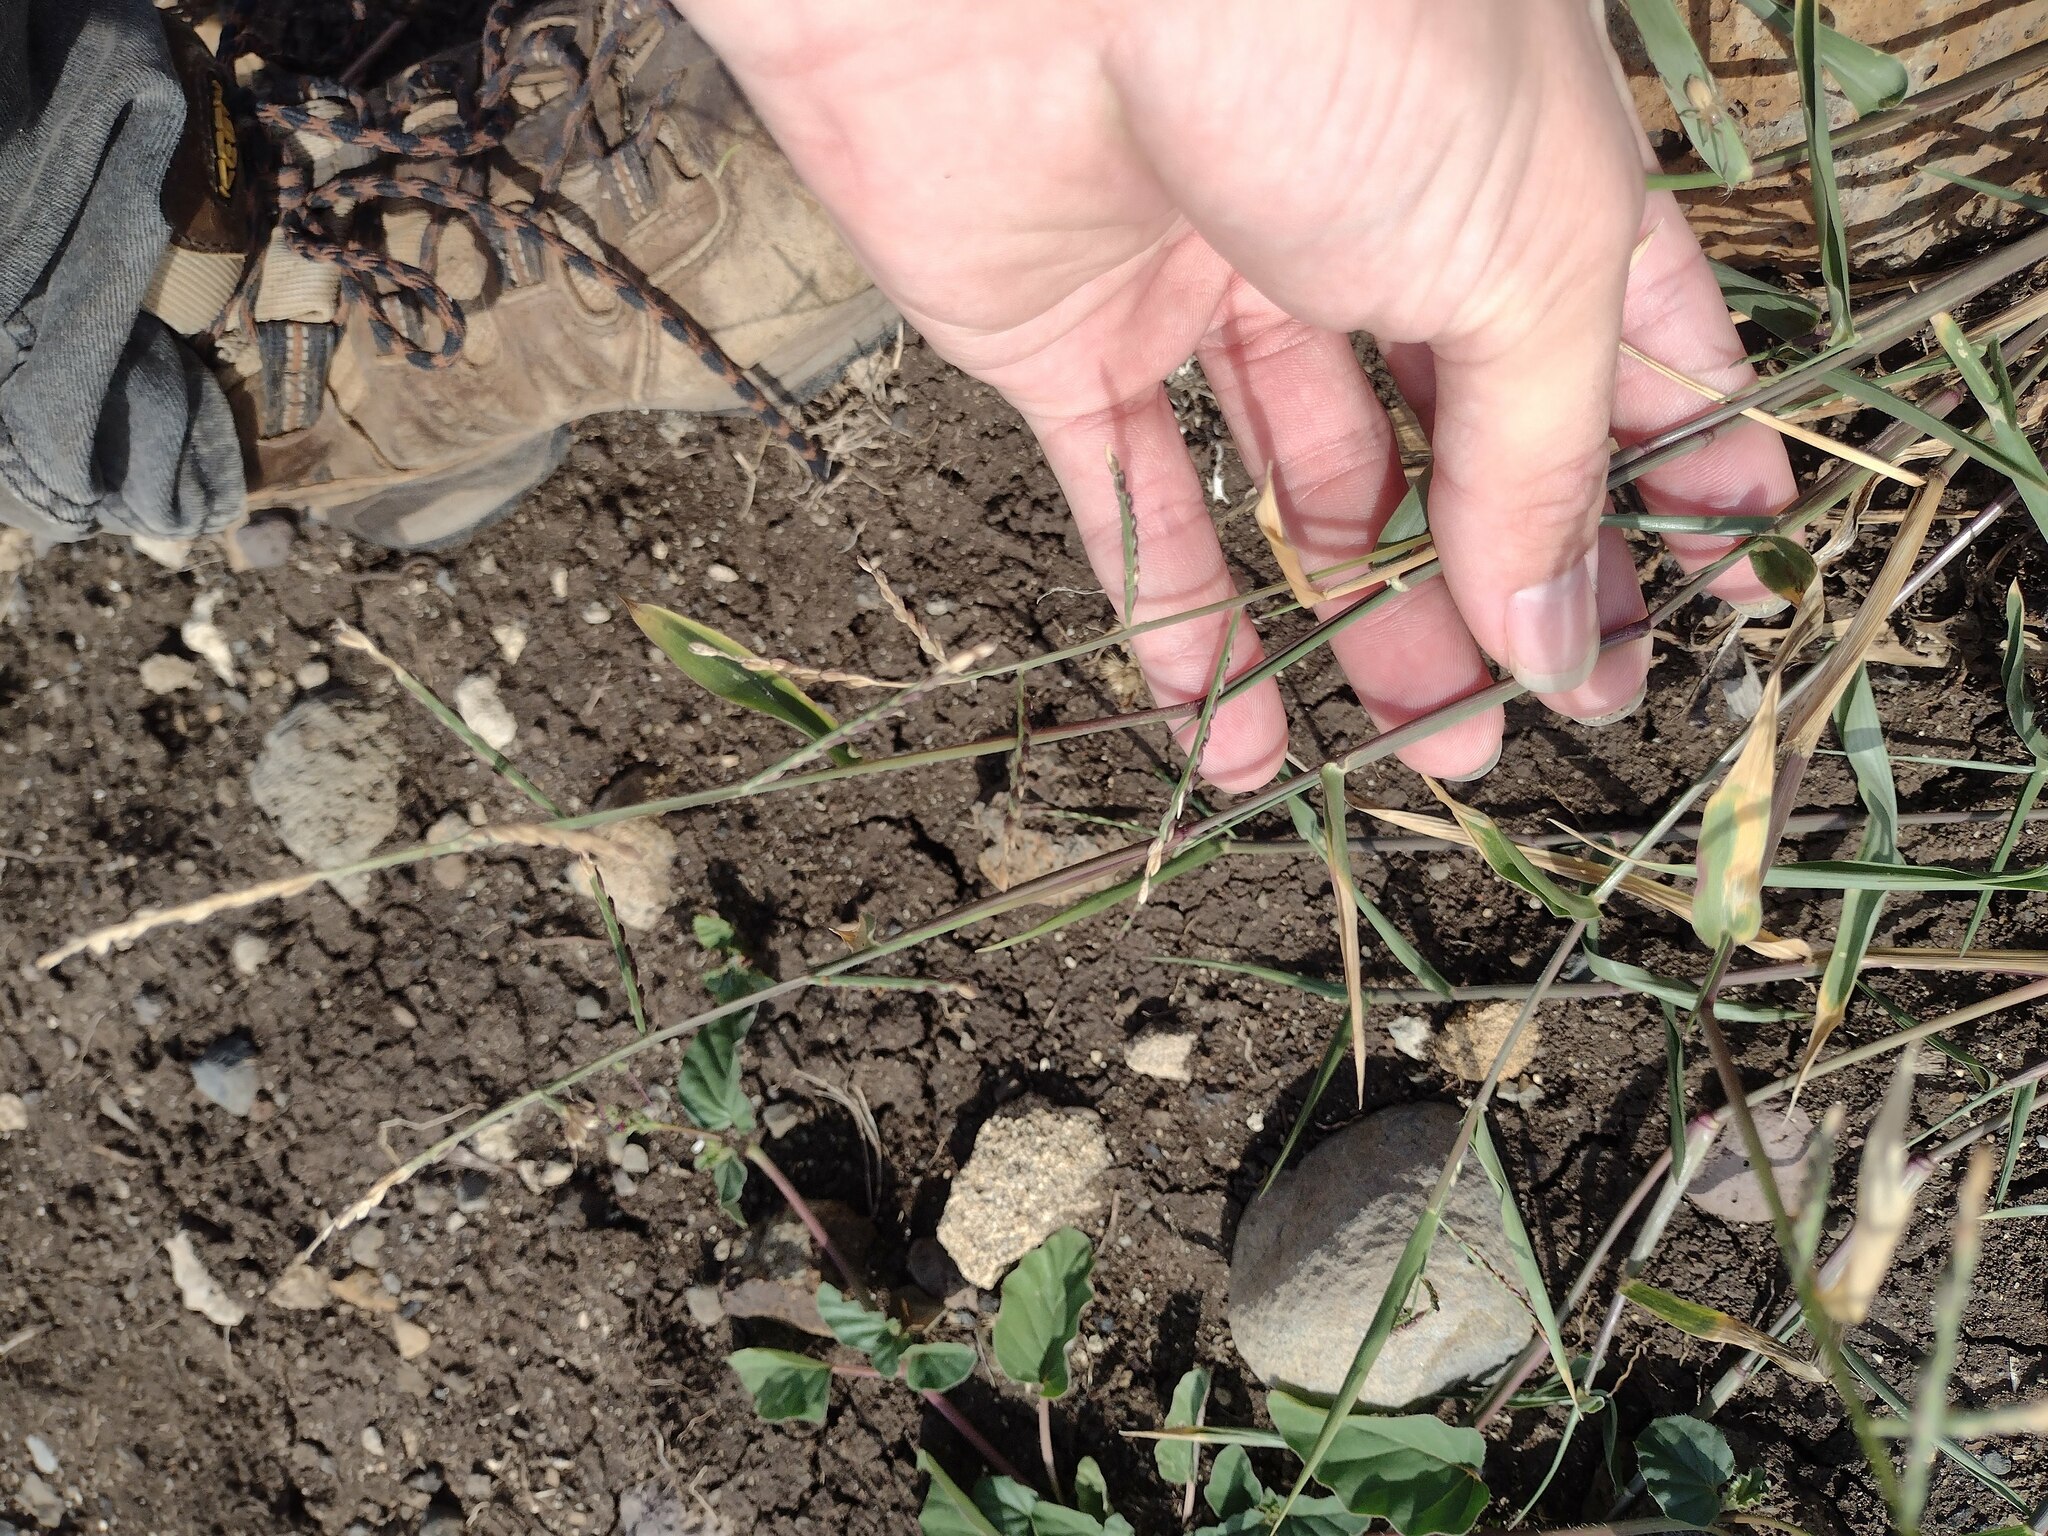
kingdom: Plantae
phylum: Tracheophyta
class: Liliopsida
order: Poales
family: Poaceae
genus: Urochloa
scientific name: Urochloa distachyos
